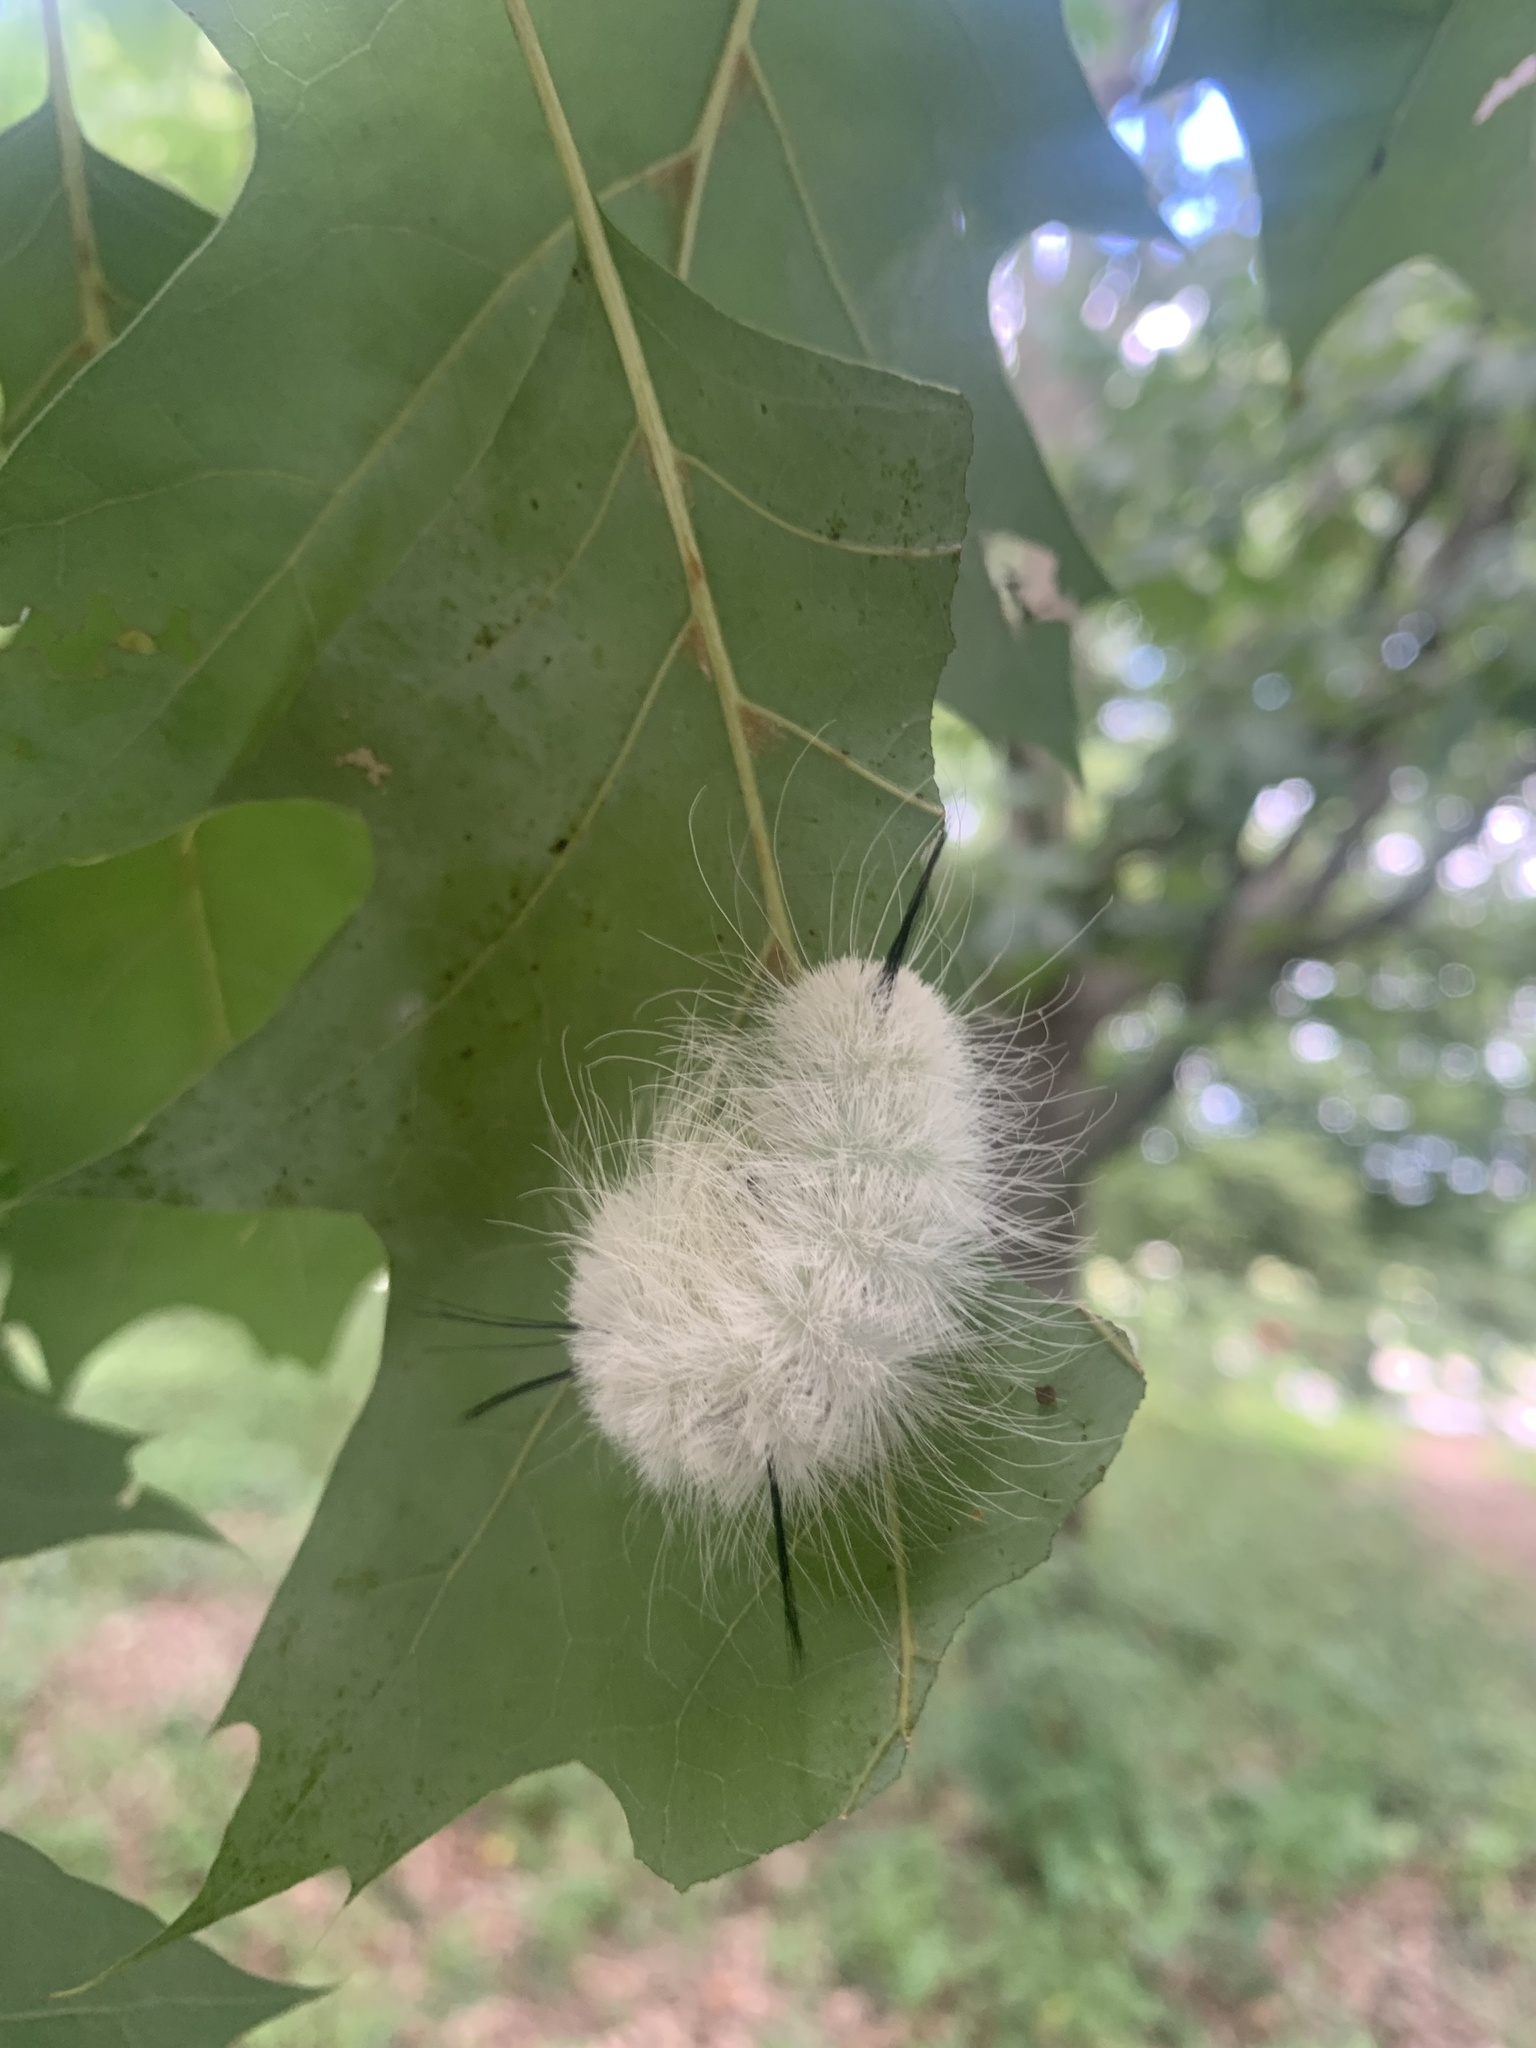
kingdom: Animalia
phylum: Arthropoda
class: Insecta
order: Lepidoptera
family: Noctuidae
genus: Acronicta
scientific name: Acronicta americana
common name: American dagger
